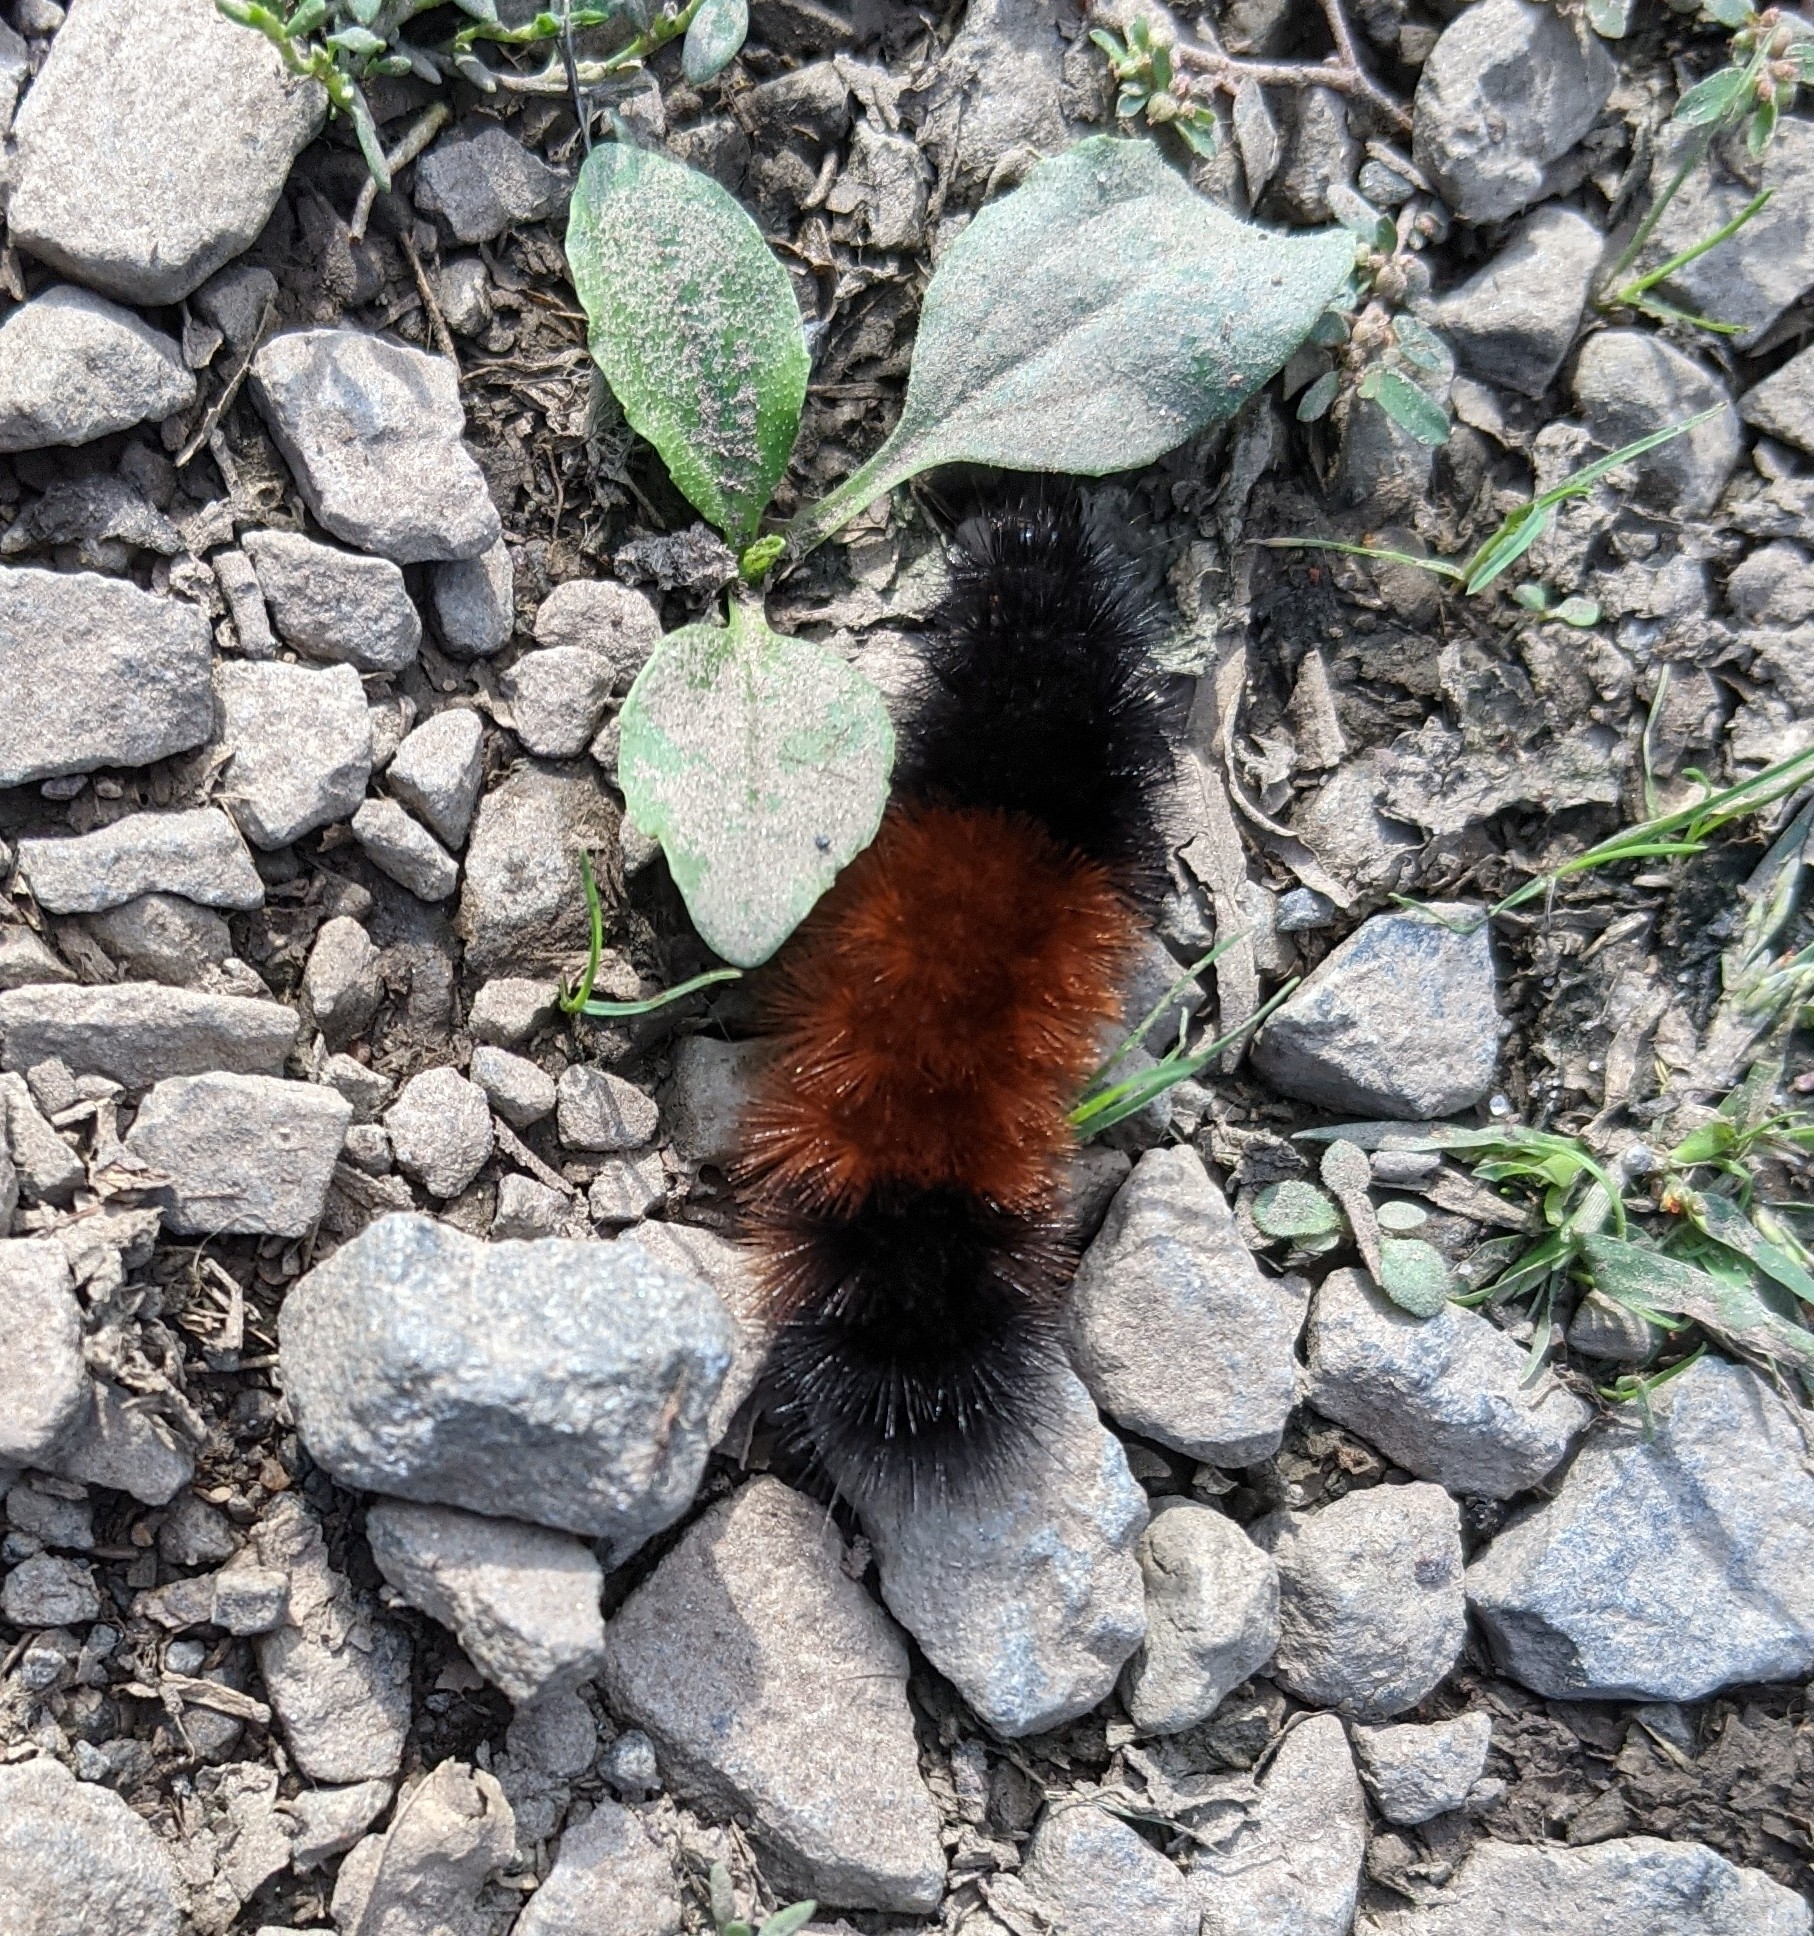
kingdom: Animalia
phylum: Arthropoda
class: Insecta
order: Lepidoptera
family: Erebidae
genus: Pyrrharctia
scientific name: Pyrrharctia isabella
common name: Isabella tiger moth
